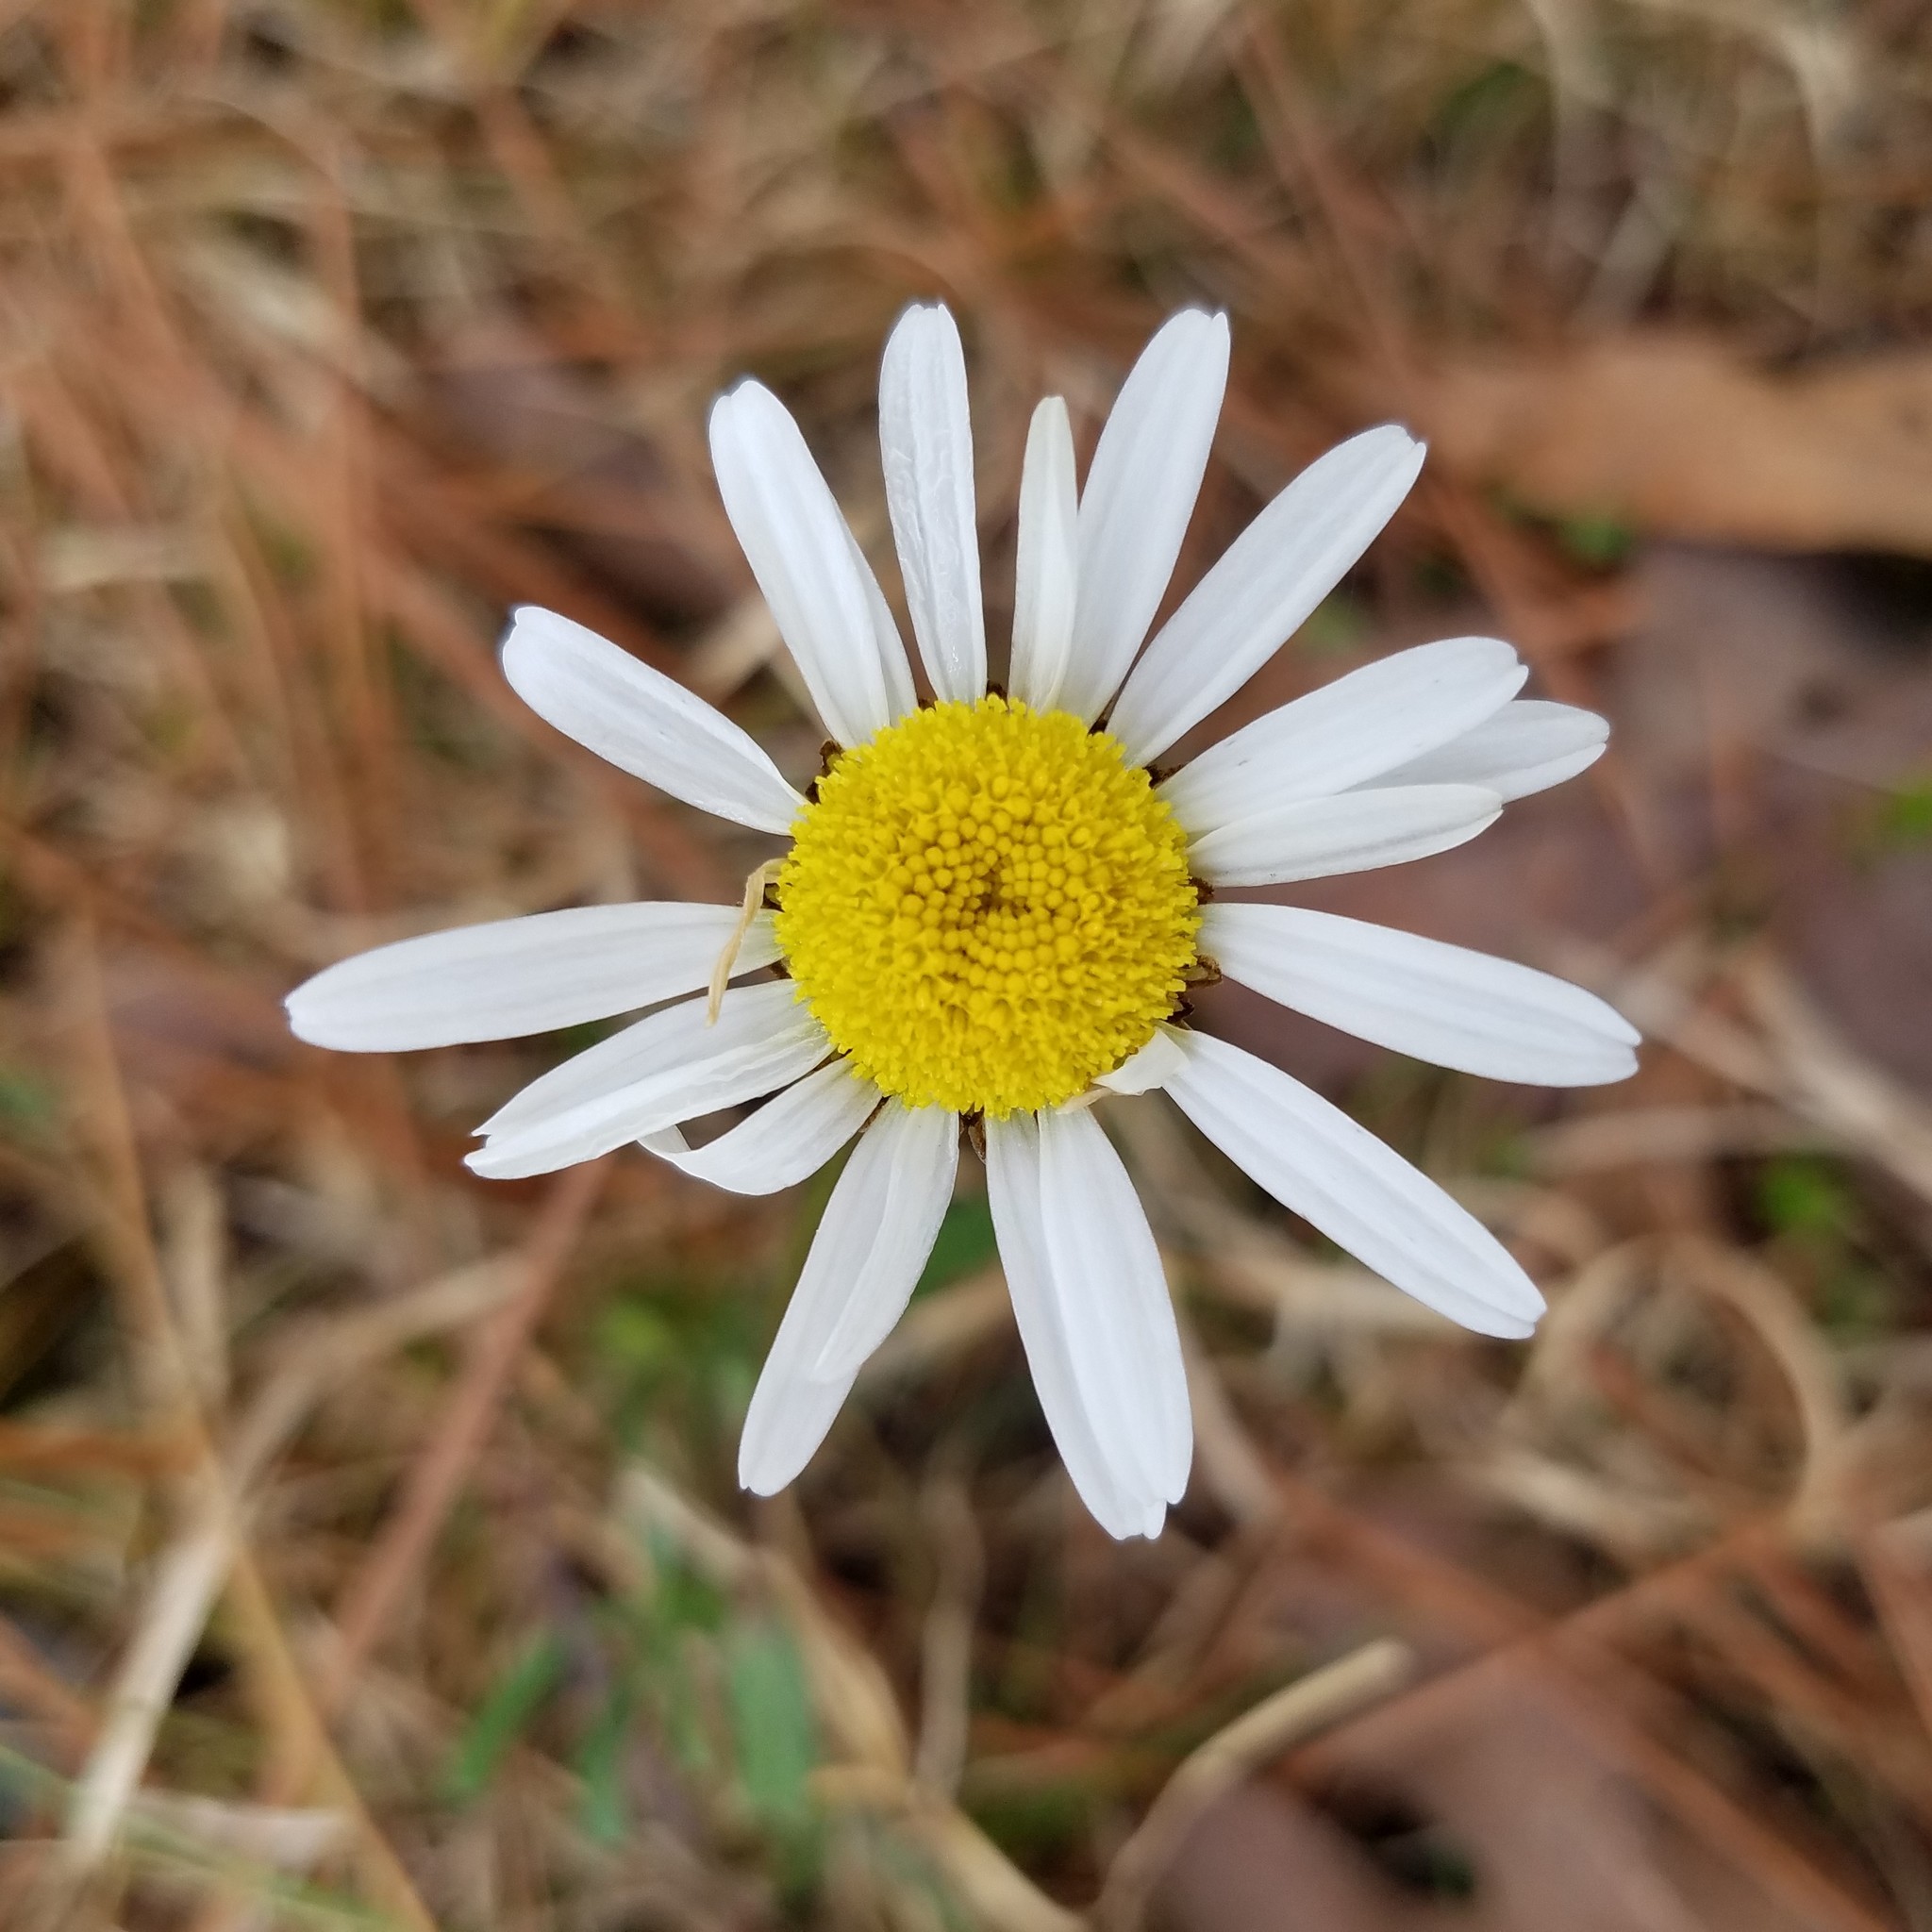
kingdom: Plantae
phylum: Tracheophyta
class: Magnoliopsida
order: Asterales
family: Asteraceae
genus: Leucanthemum
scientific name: Leucanthemum vulgare
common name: Oxeye daisy
